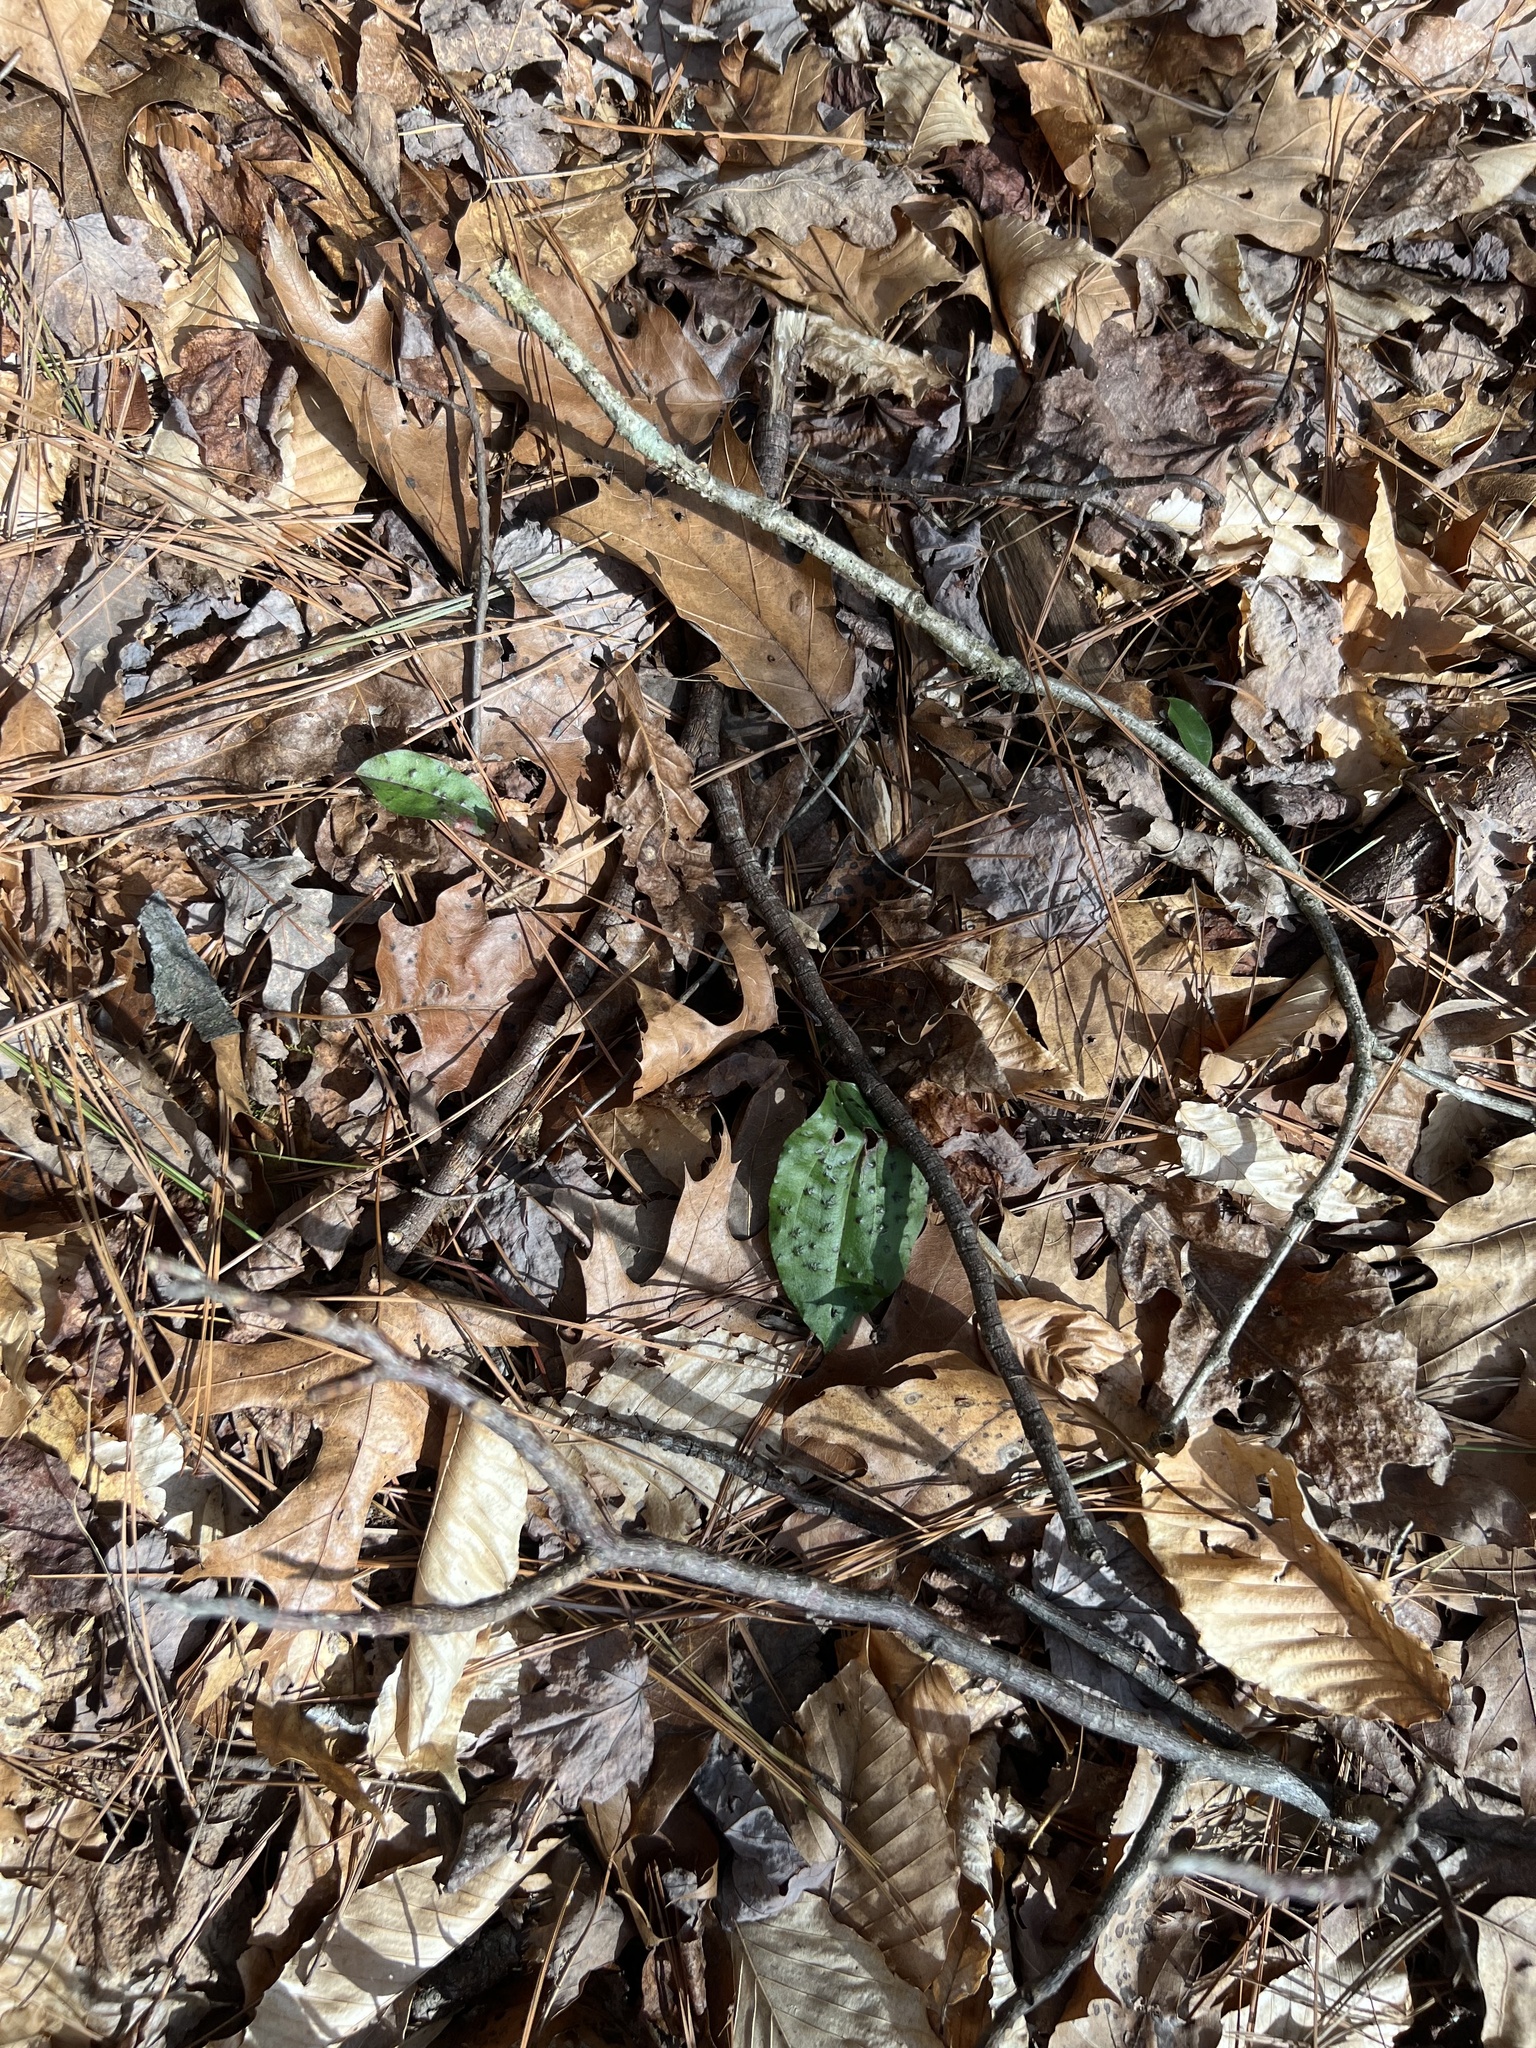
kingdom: Plantae
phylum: Tracheophyta
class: Liliopsida
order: Asparagales
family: Orchidaceae
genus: Tipularia
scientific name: Tipularia discolor
